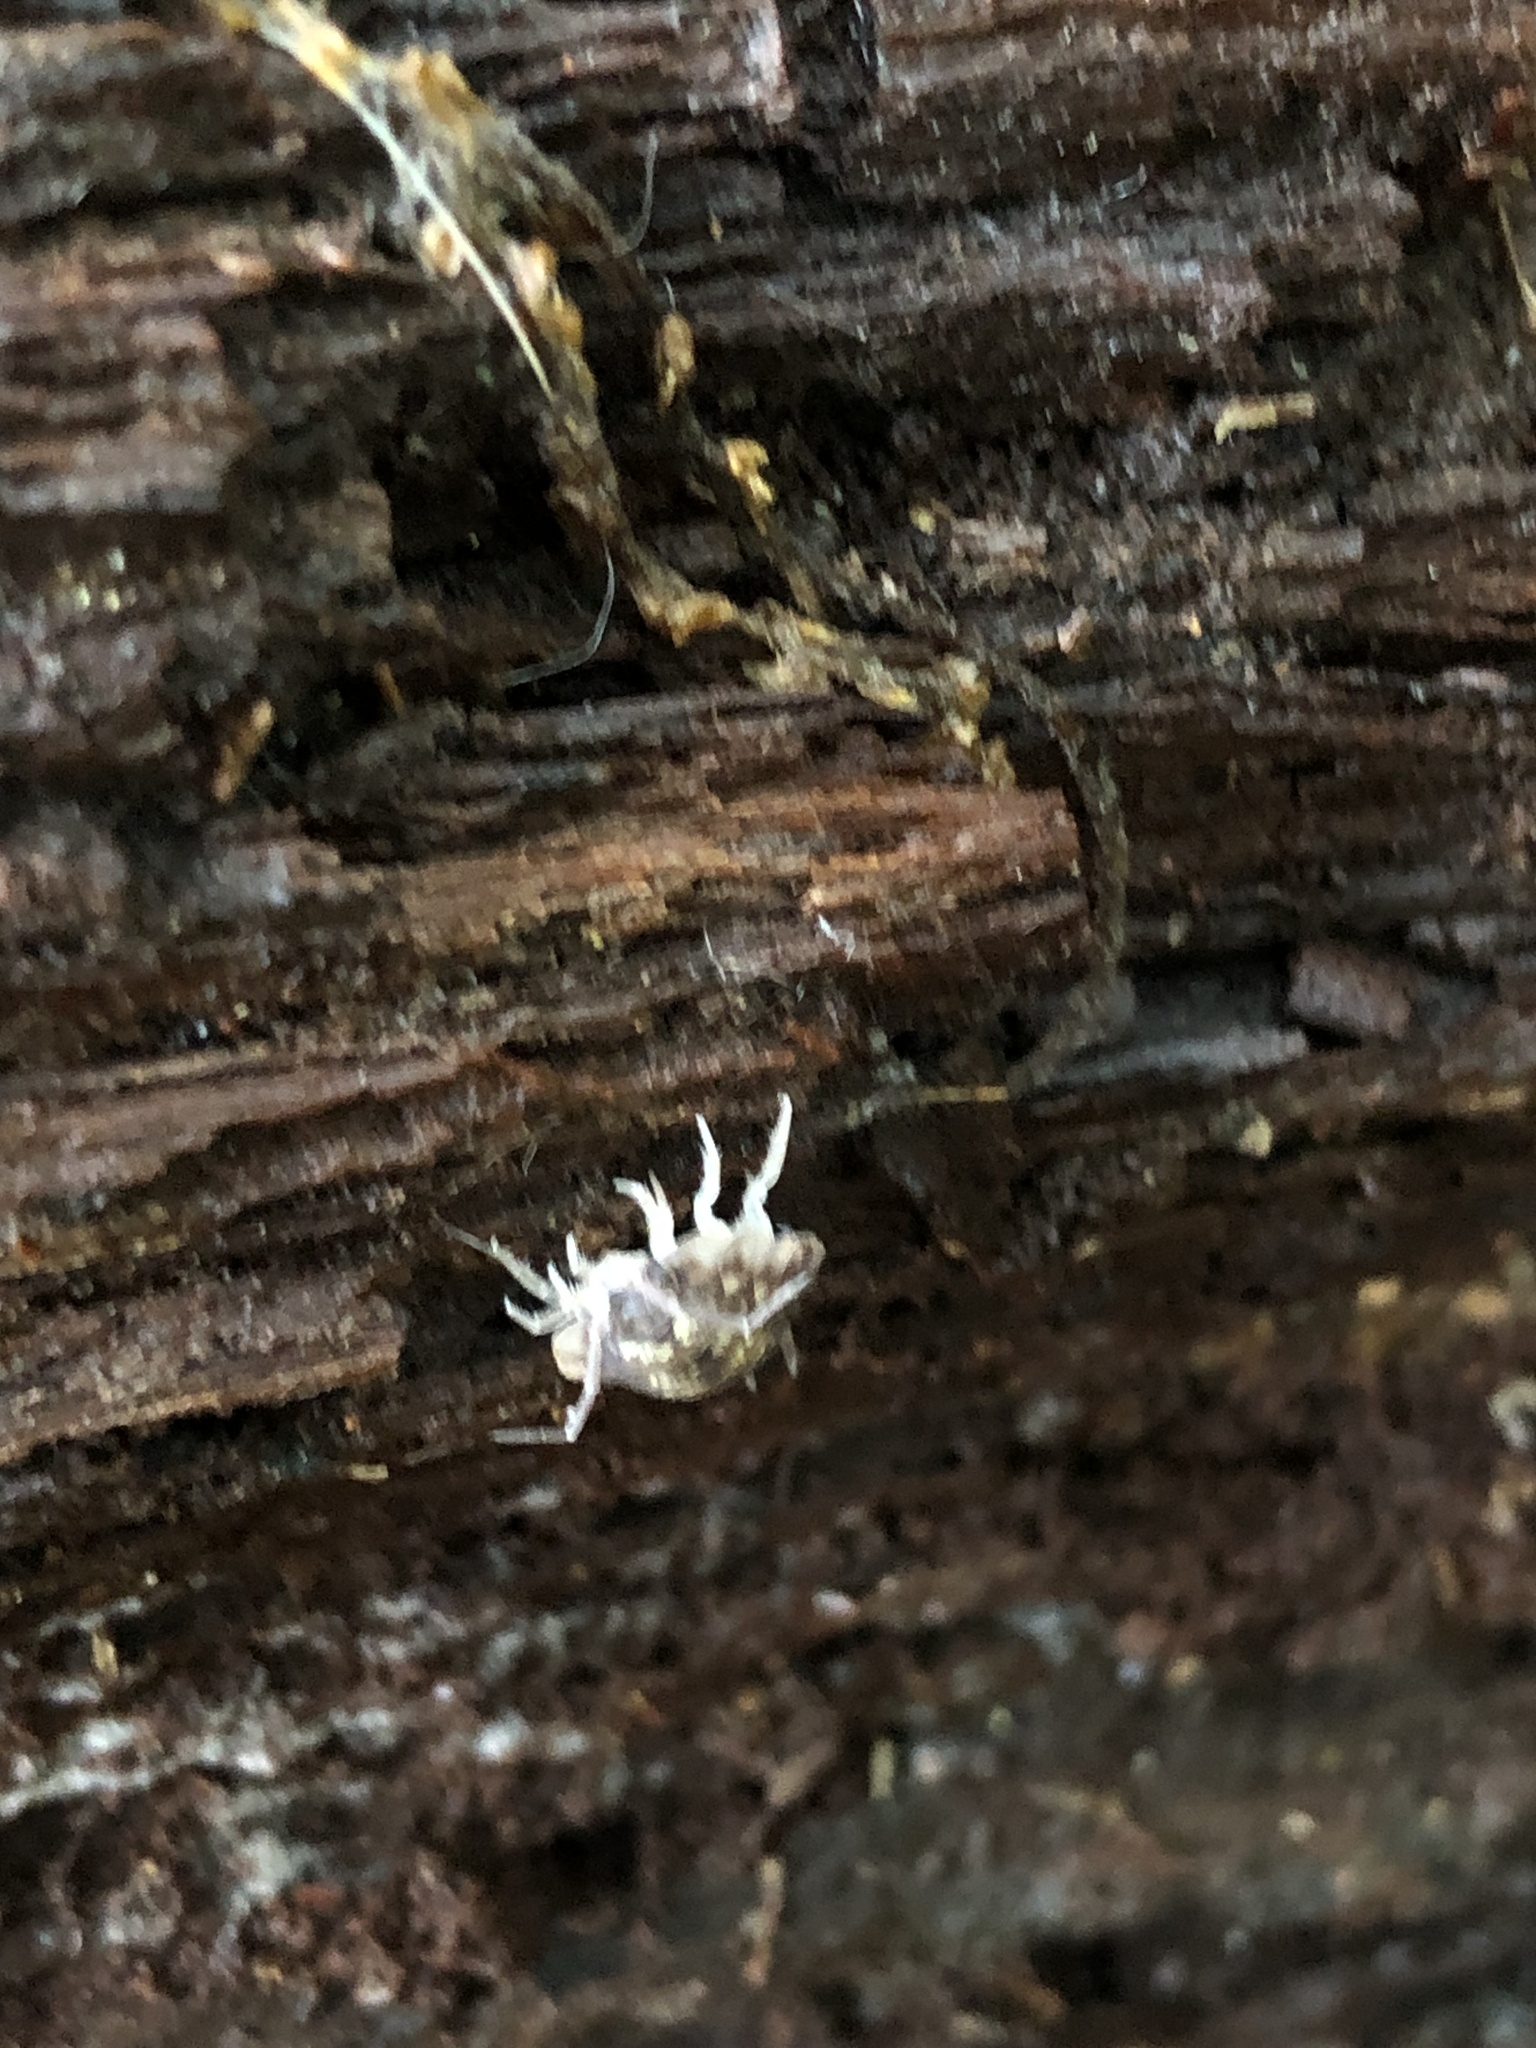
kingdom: Animalia
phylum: Arthropoda
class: Malacostraca
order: Isopoda
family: Oniscidae
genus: Oniscus
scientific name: Oniscus asellus
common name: Common shiny woodlouse
